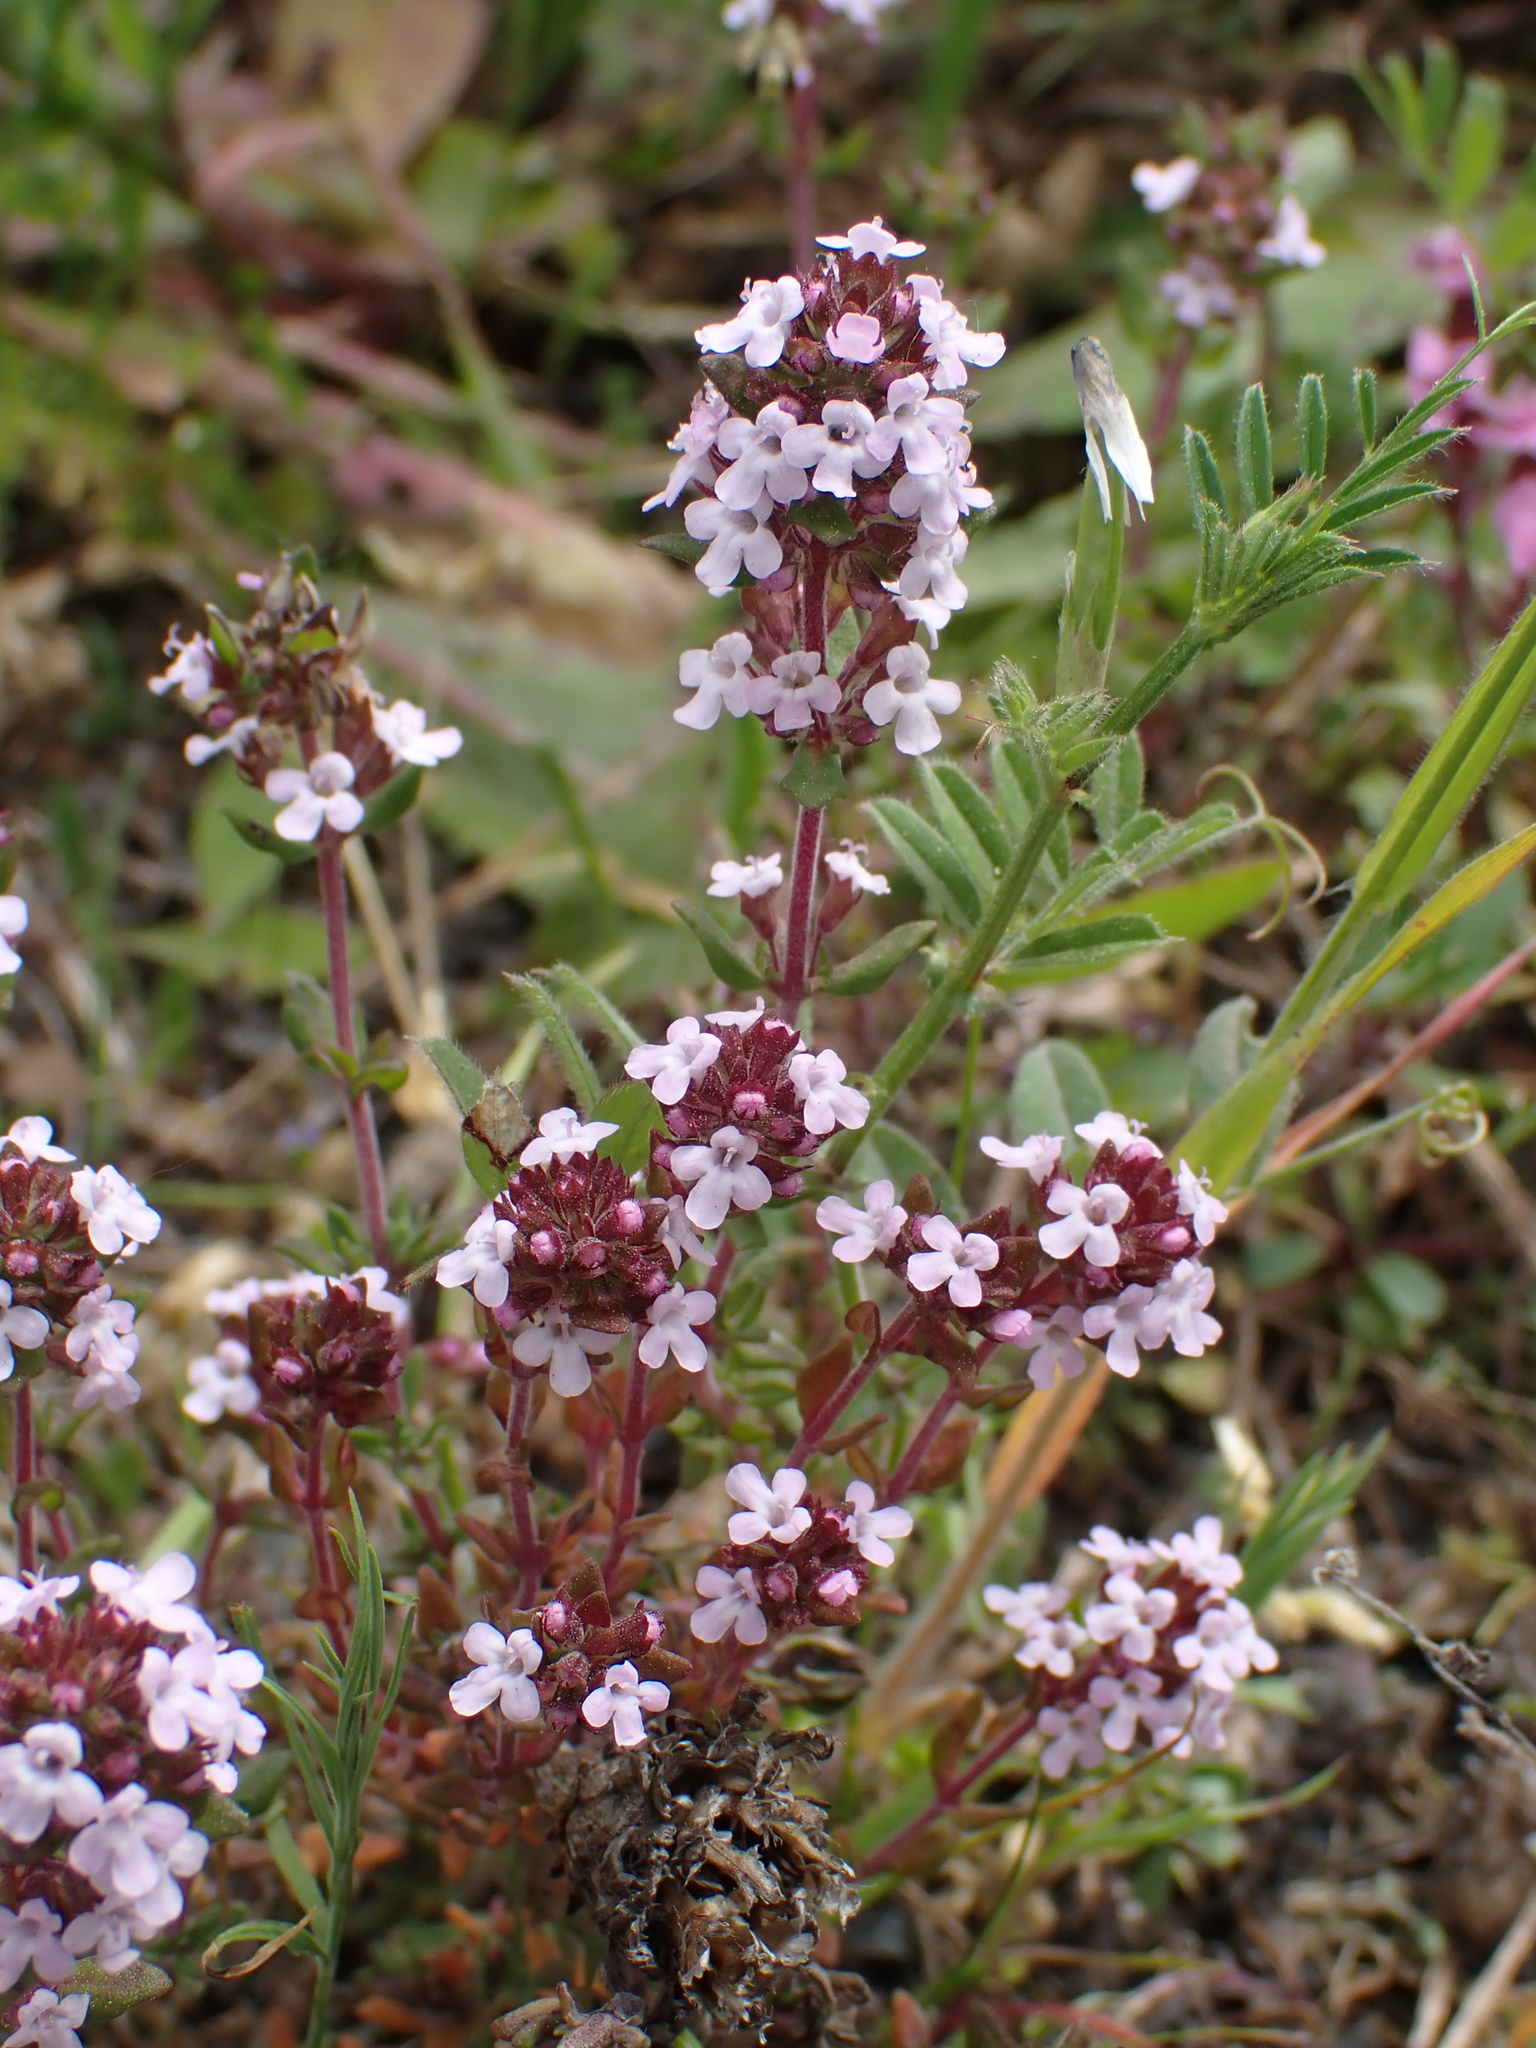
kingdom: Plantae
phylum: Tracheophyta
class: Magnoliopsida
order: Lamiales
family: Lamiaceae
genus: Thymus
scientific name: Thymus pulegioides
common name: Large thyme
